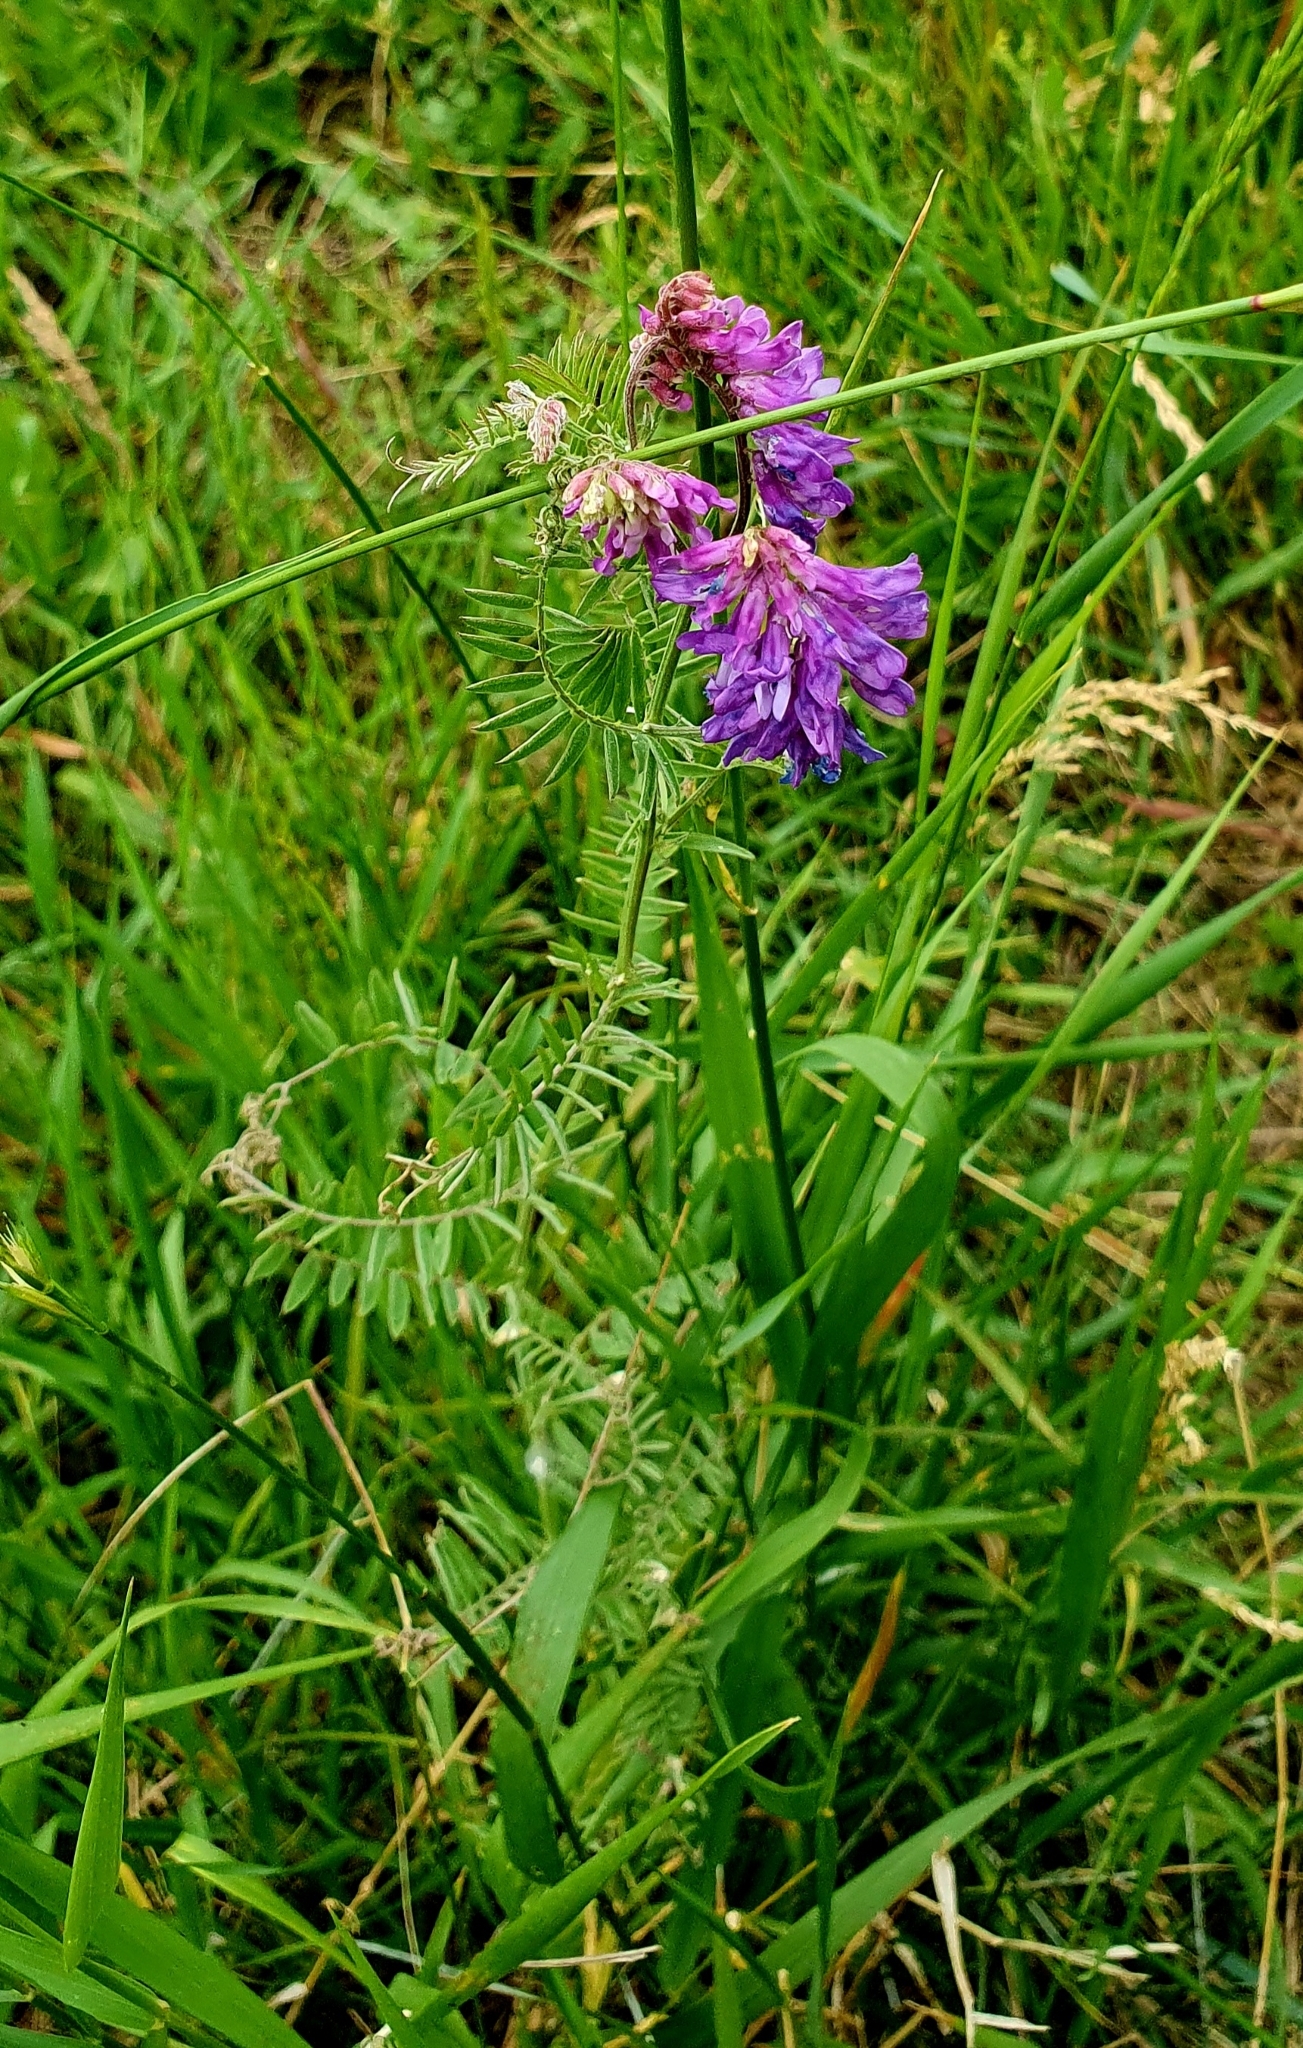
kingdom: Plantae
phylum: Tracheophyta
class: Magnoliopsida
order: Fabales
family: Fabaceae
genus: Vicia
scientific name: Vicia cracca
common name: Bird vetch
